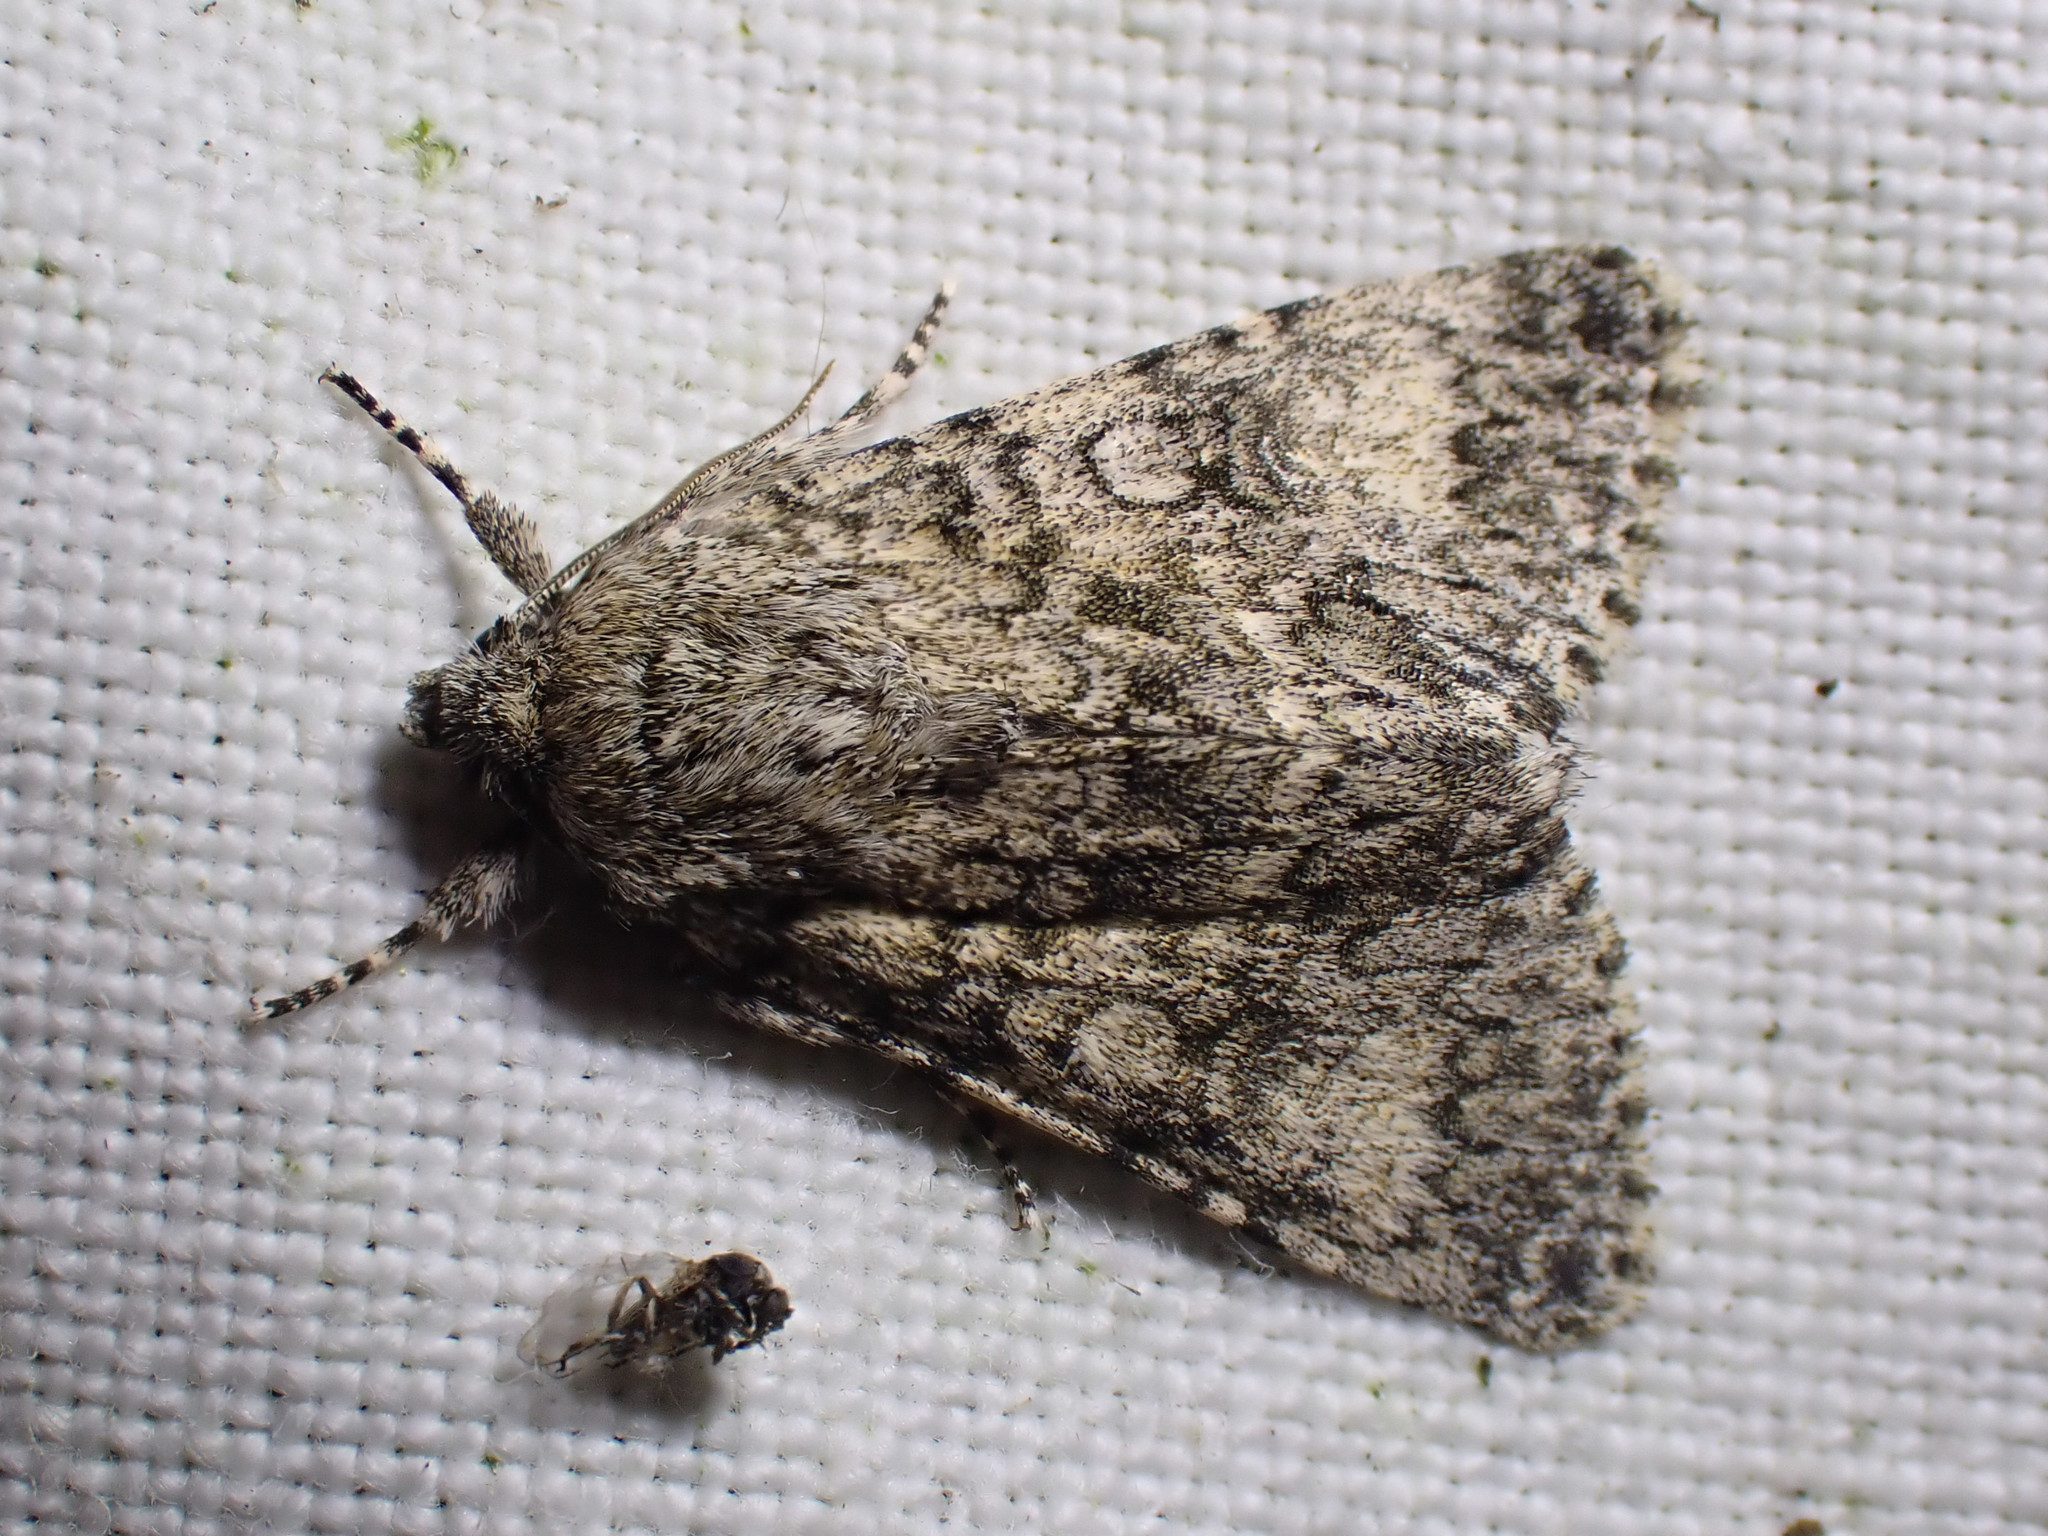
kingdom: Animalia
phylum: Arthropoda
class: Insecta
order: Lepidoptera
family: Noctuidae
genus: Acronicta
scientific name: Acronicta megacephala
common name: Poplar grey
